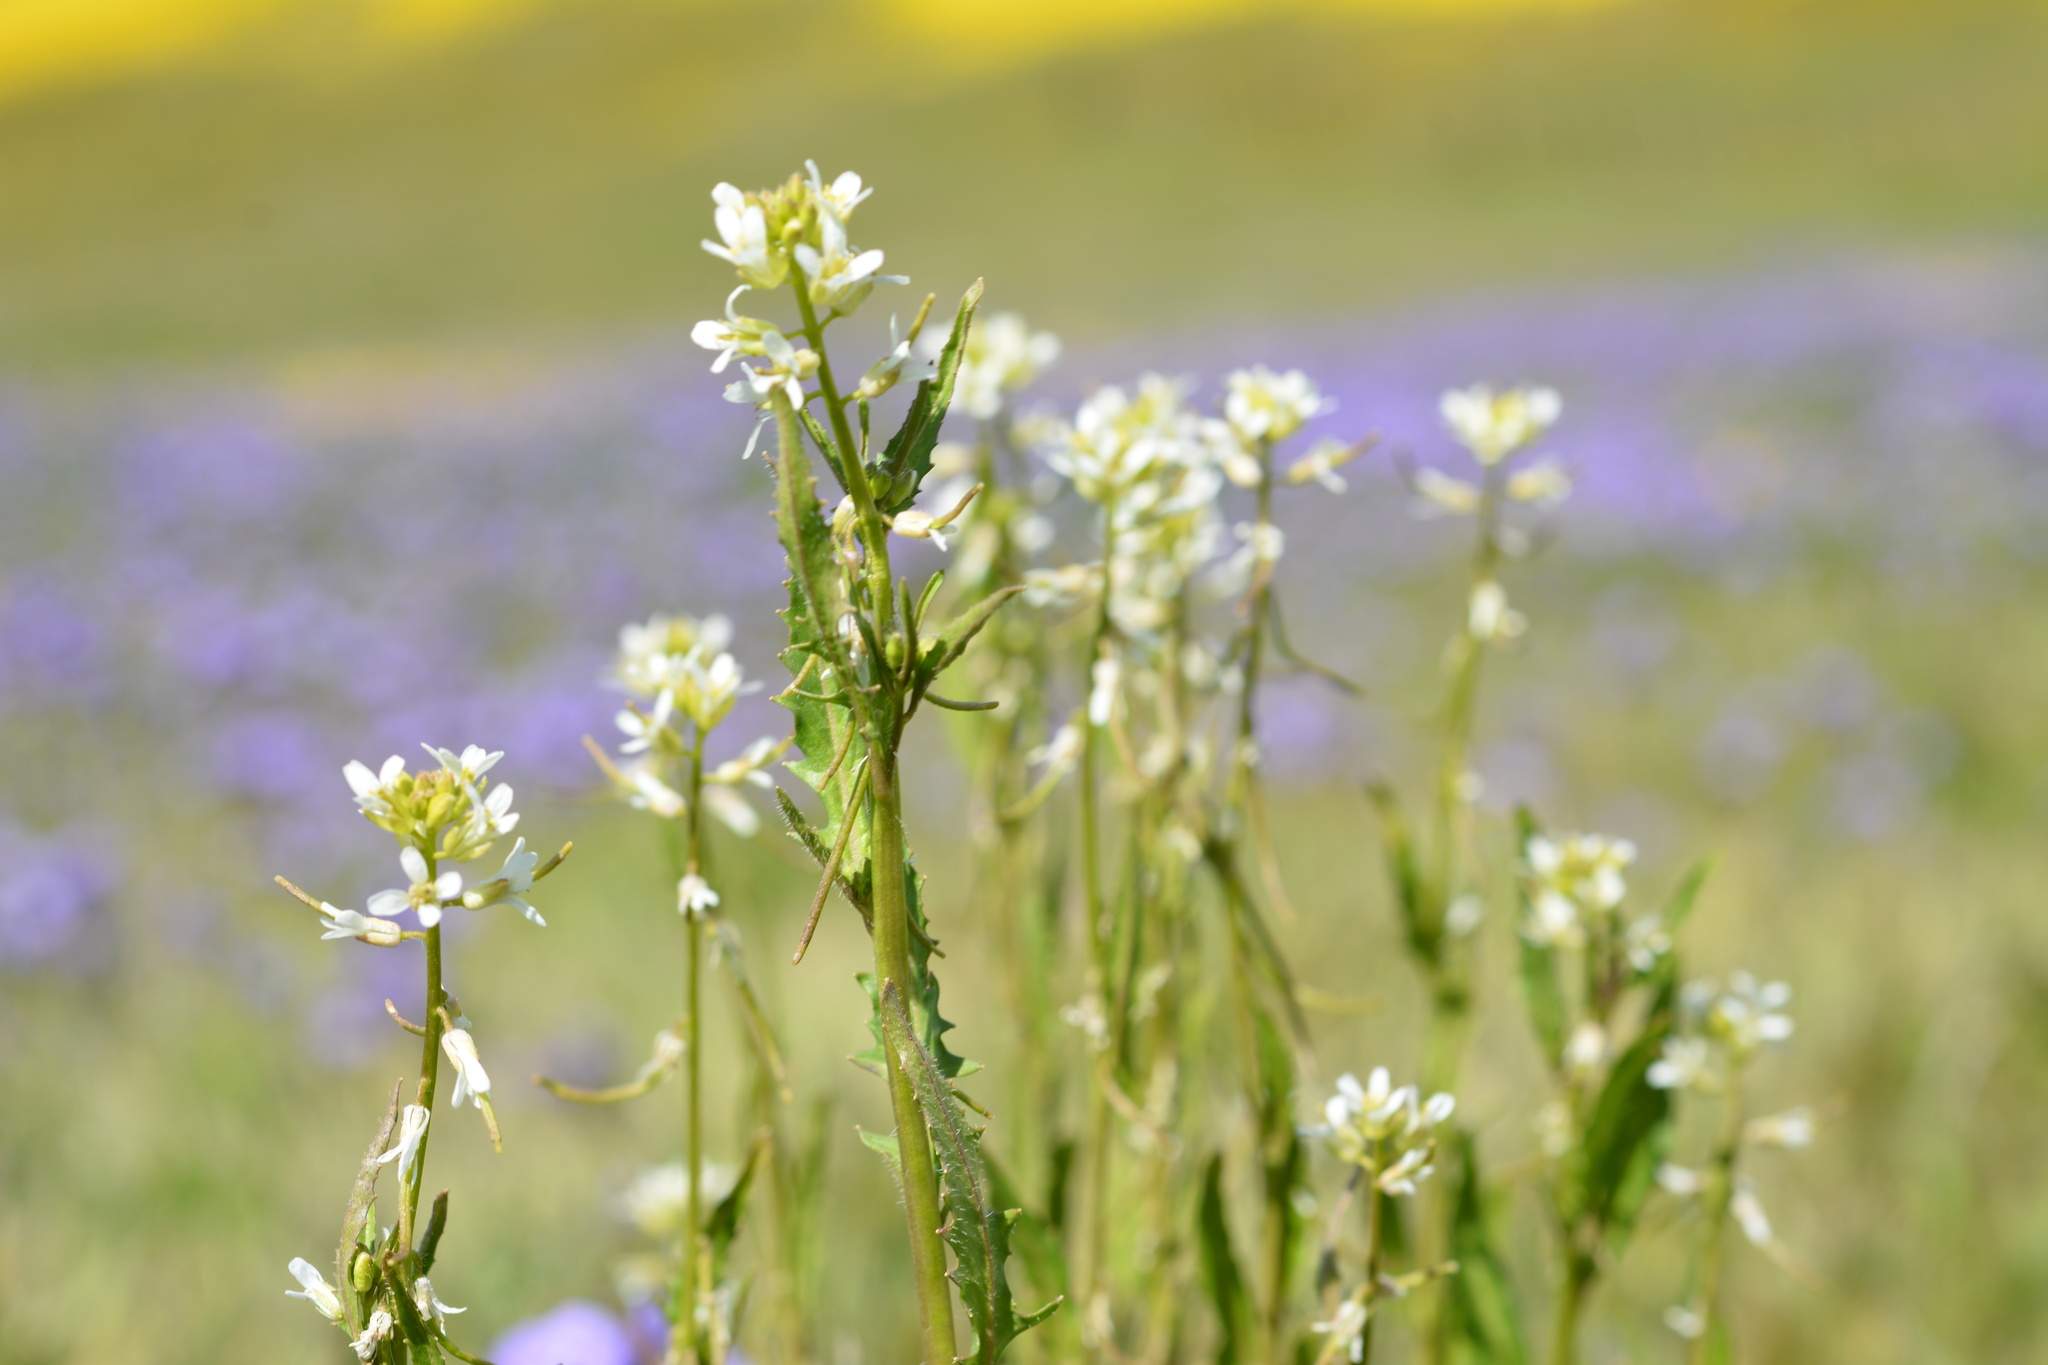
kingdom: Plantae
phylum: Tracheophyta
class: Magnoliopsida
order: Brassicales
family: Brassicaceae
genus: Streptanthus
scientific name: Streptanthus lasiophyllus
